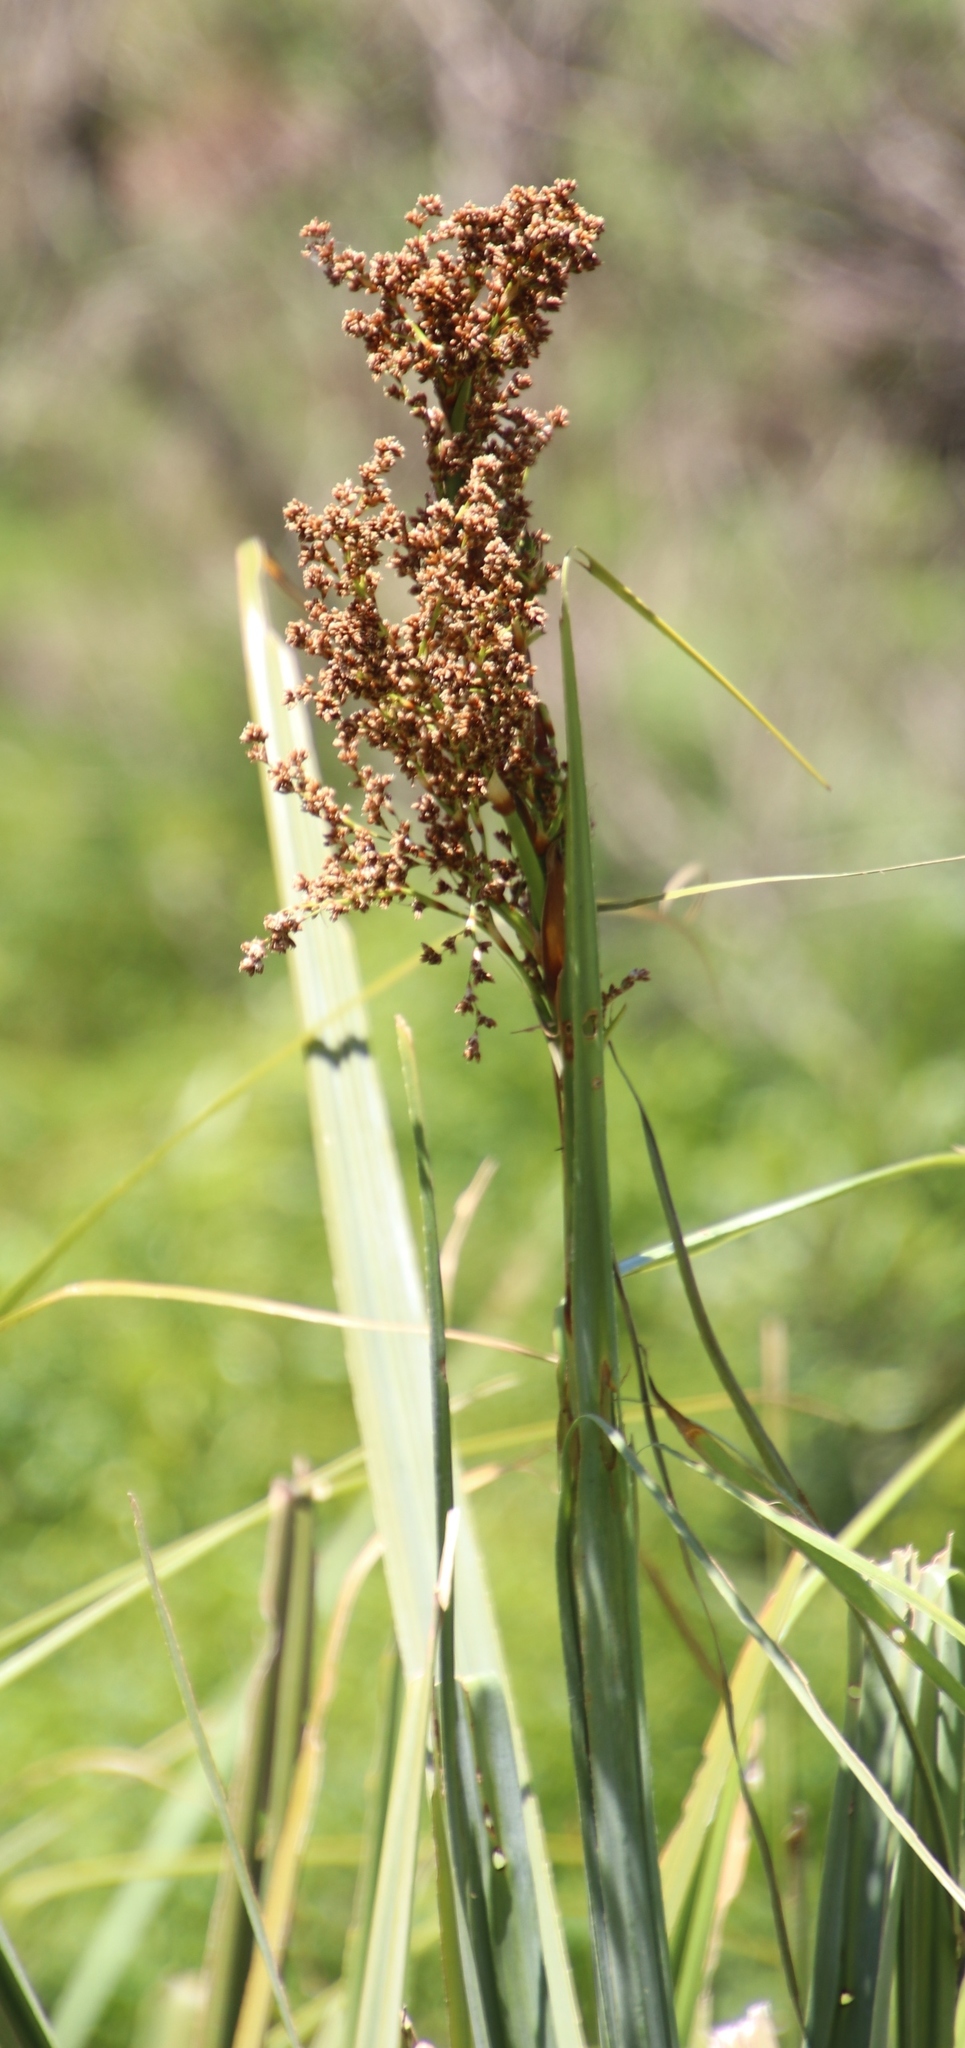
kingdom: Plantae
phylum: Tracheophyta
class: Liliopsida
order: Poales
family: Thurniaceae
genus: Prionium
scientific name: Prionium serratum
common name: Palmiet
